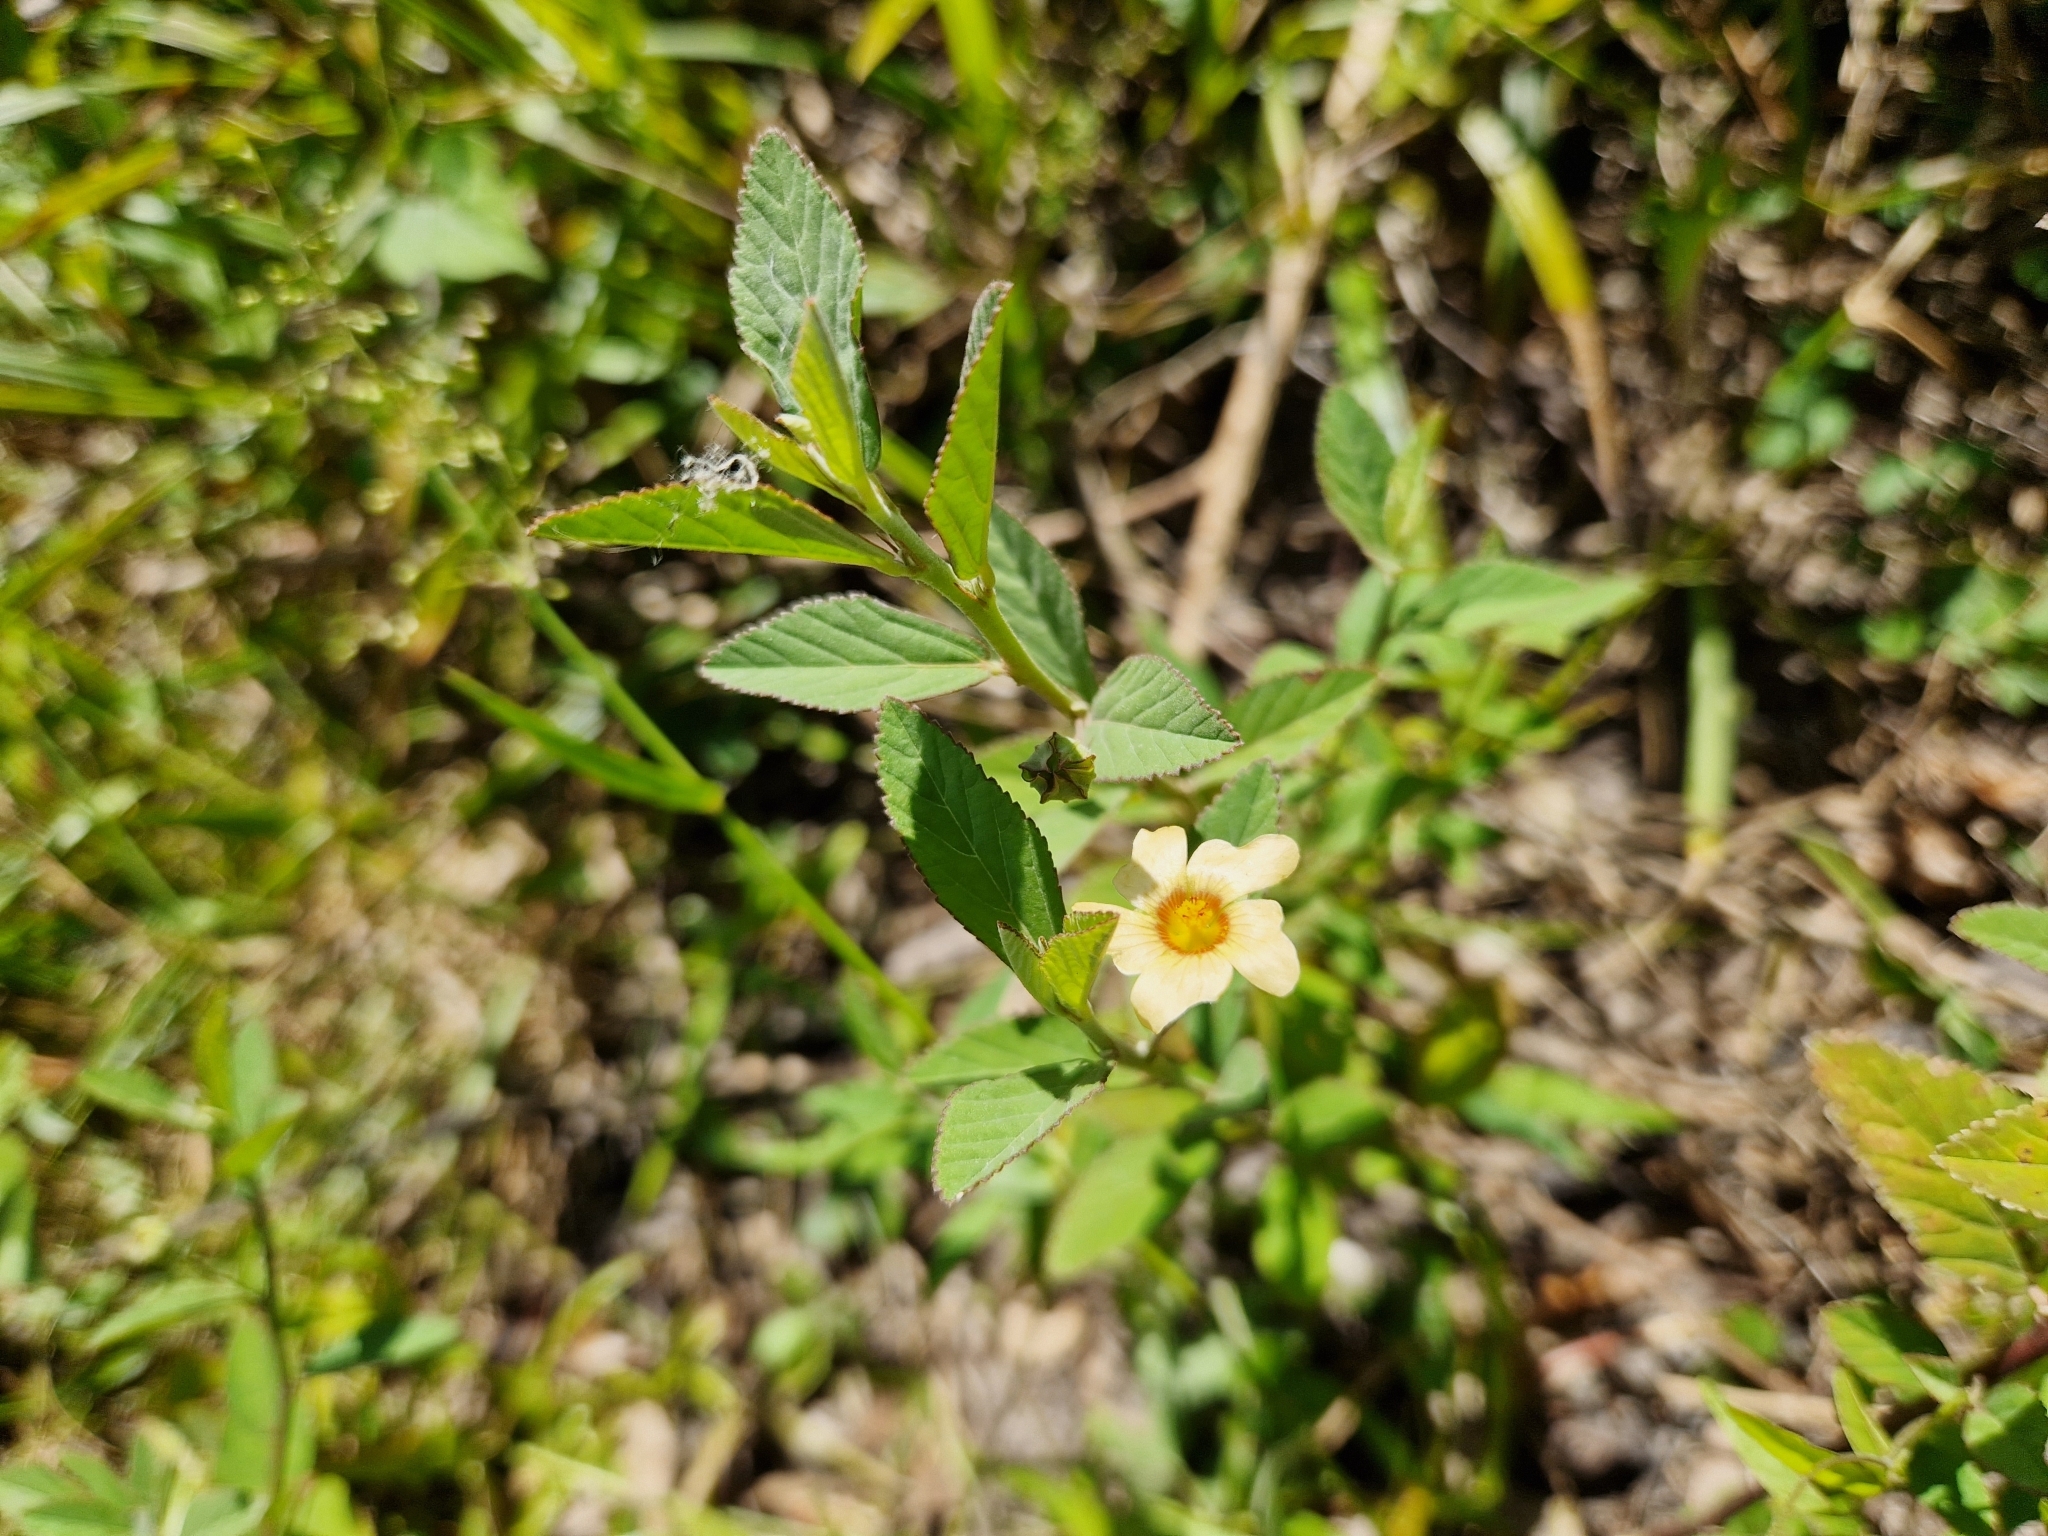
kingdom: Plantae
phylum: Tracheophyta
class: Magnoliopsida
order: Malvales
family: Malvaceae
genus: Sida
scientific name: Sida rhombifolia
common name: Queensland-hemp
